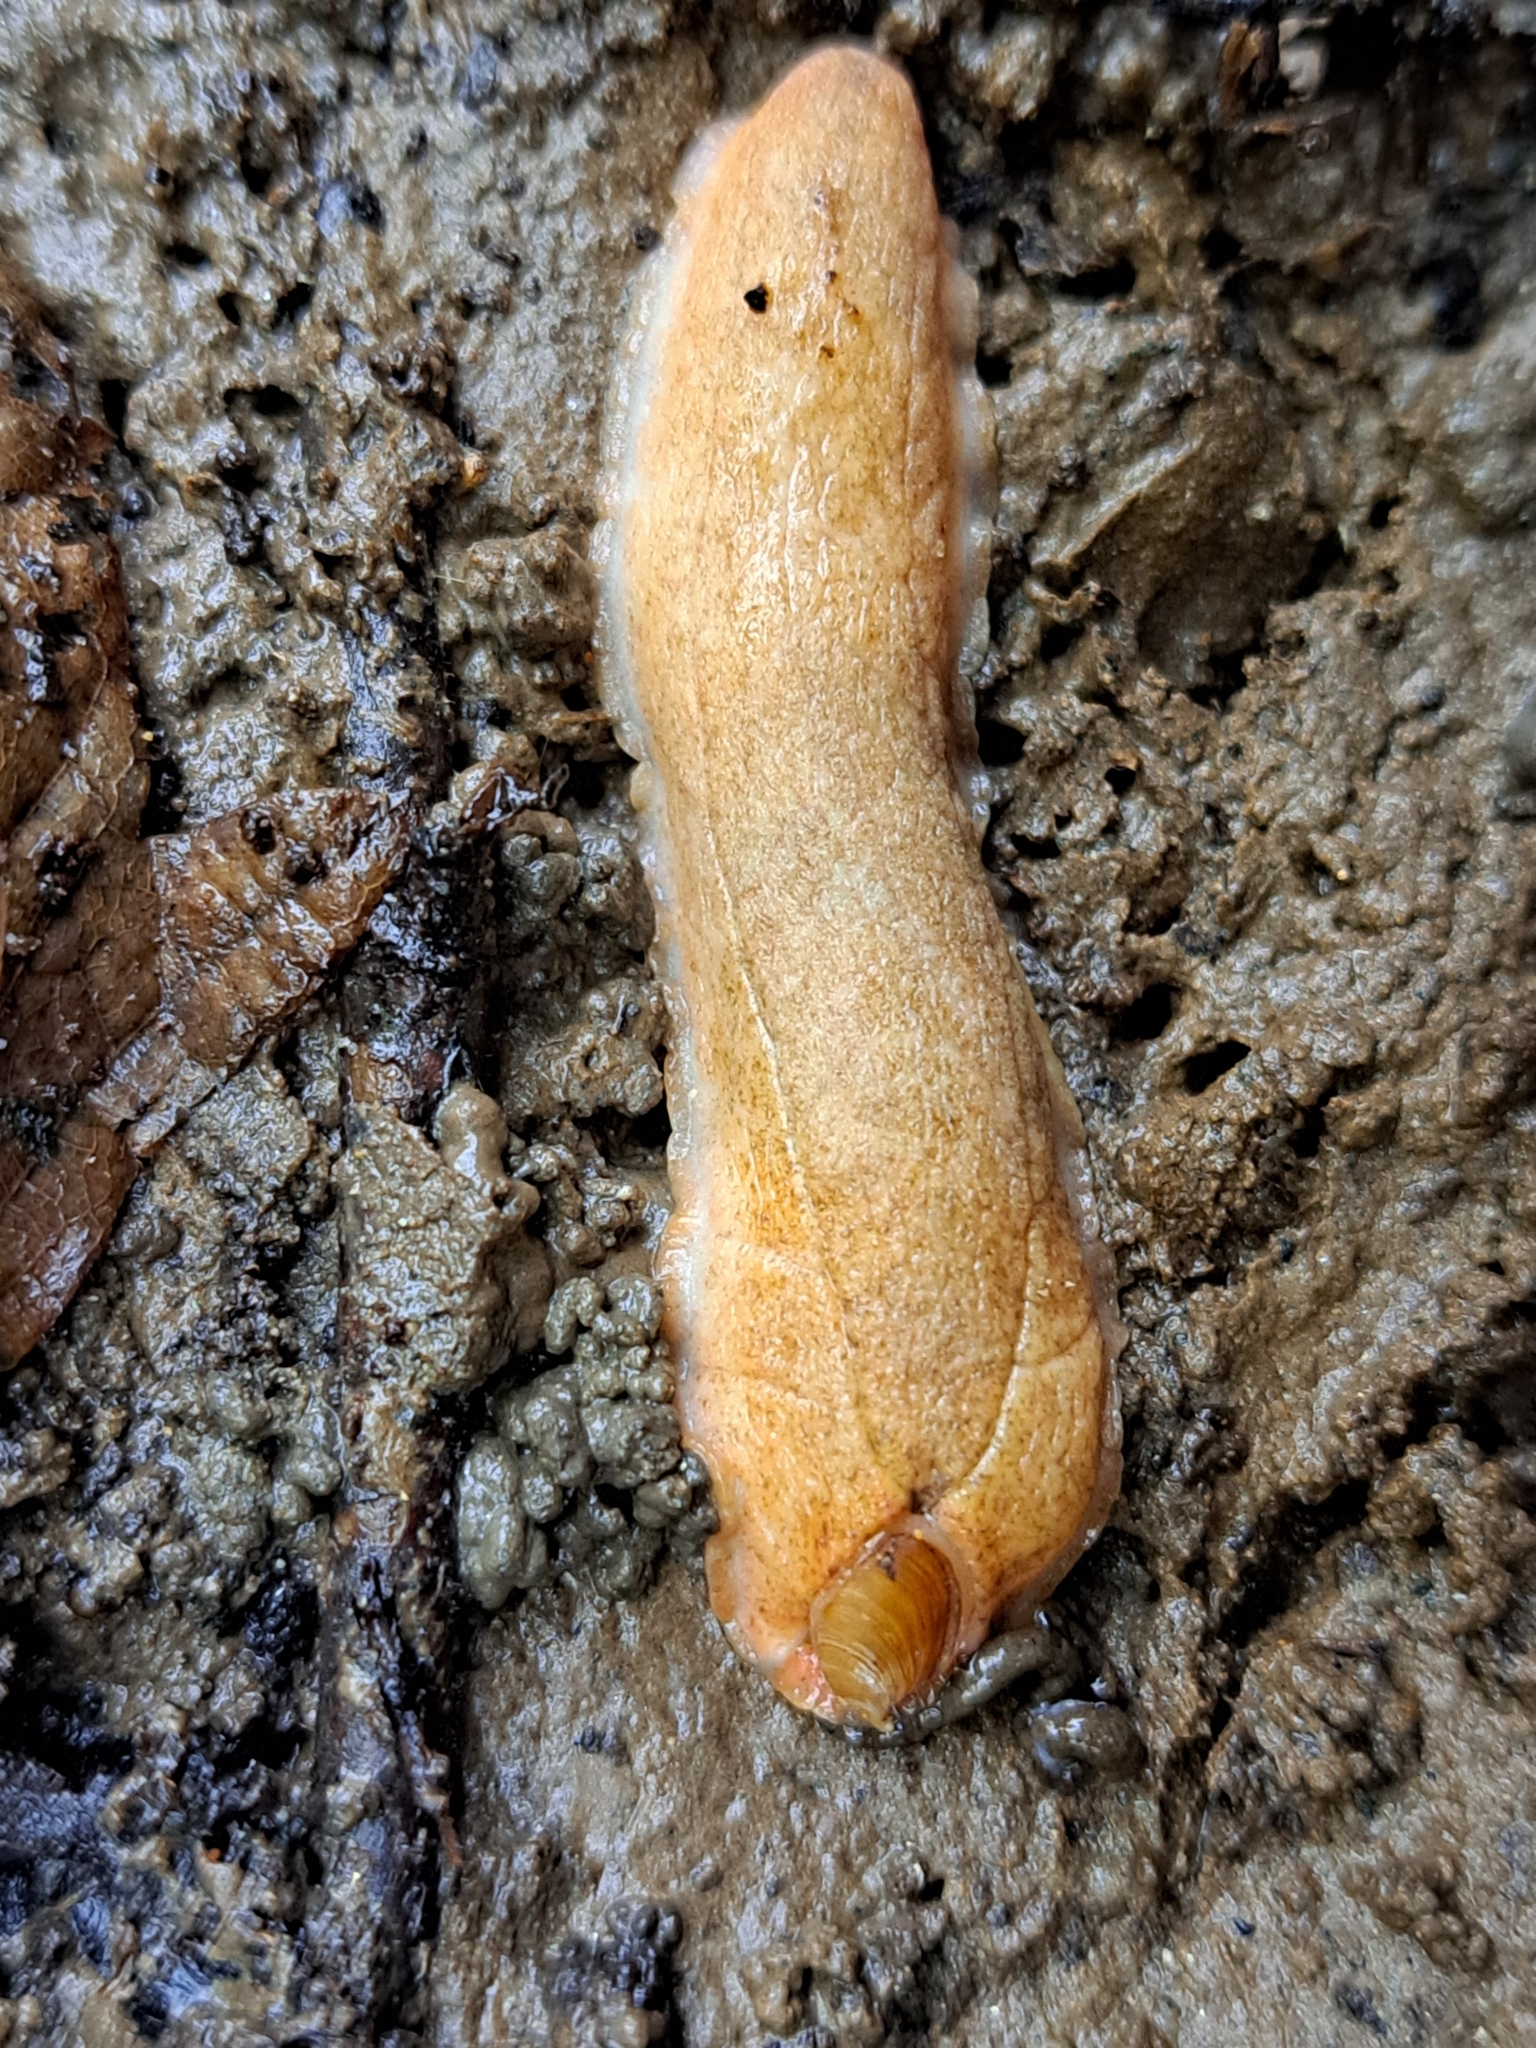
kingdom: Animalia
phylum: Mollusca
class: Gastropoda
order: Stylommatophora
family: Testacellidae
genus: Testacella
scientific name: Testacella scutulum
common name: Sowerby's shield shelled slug
